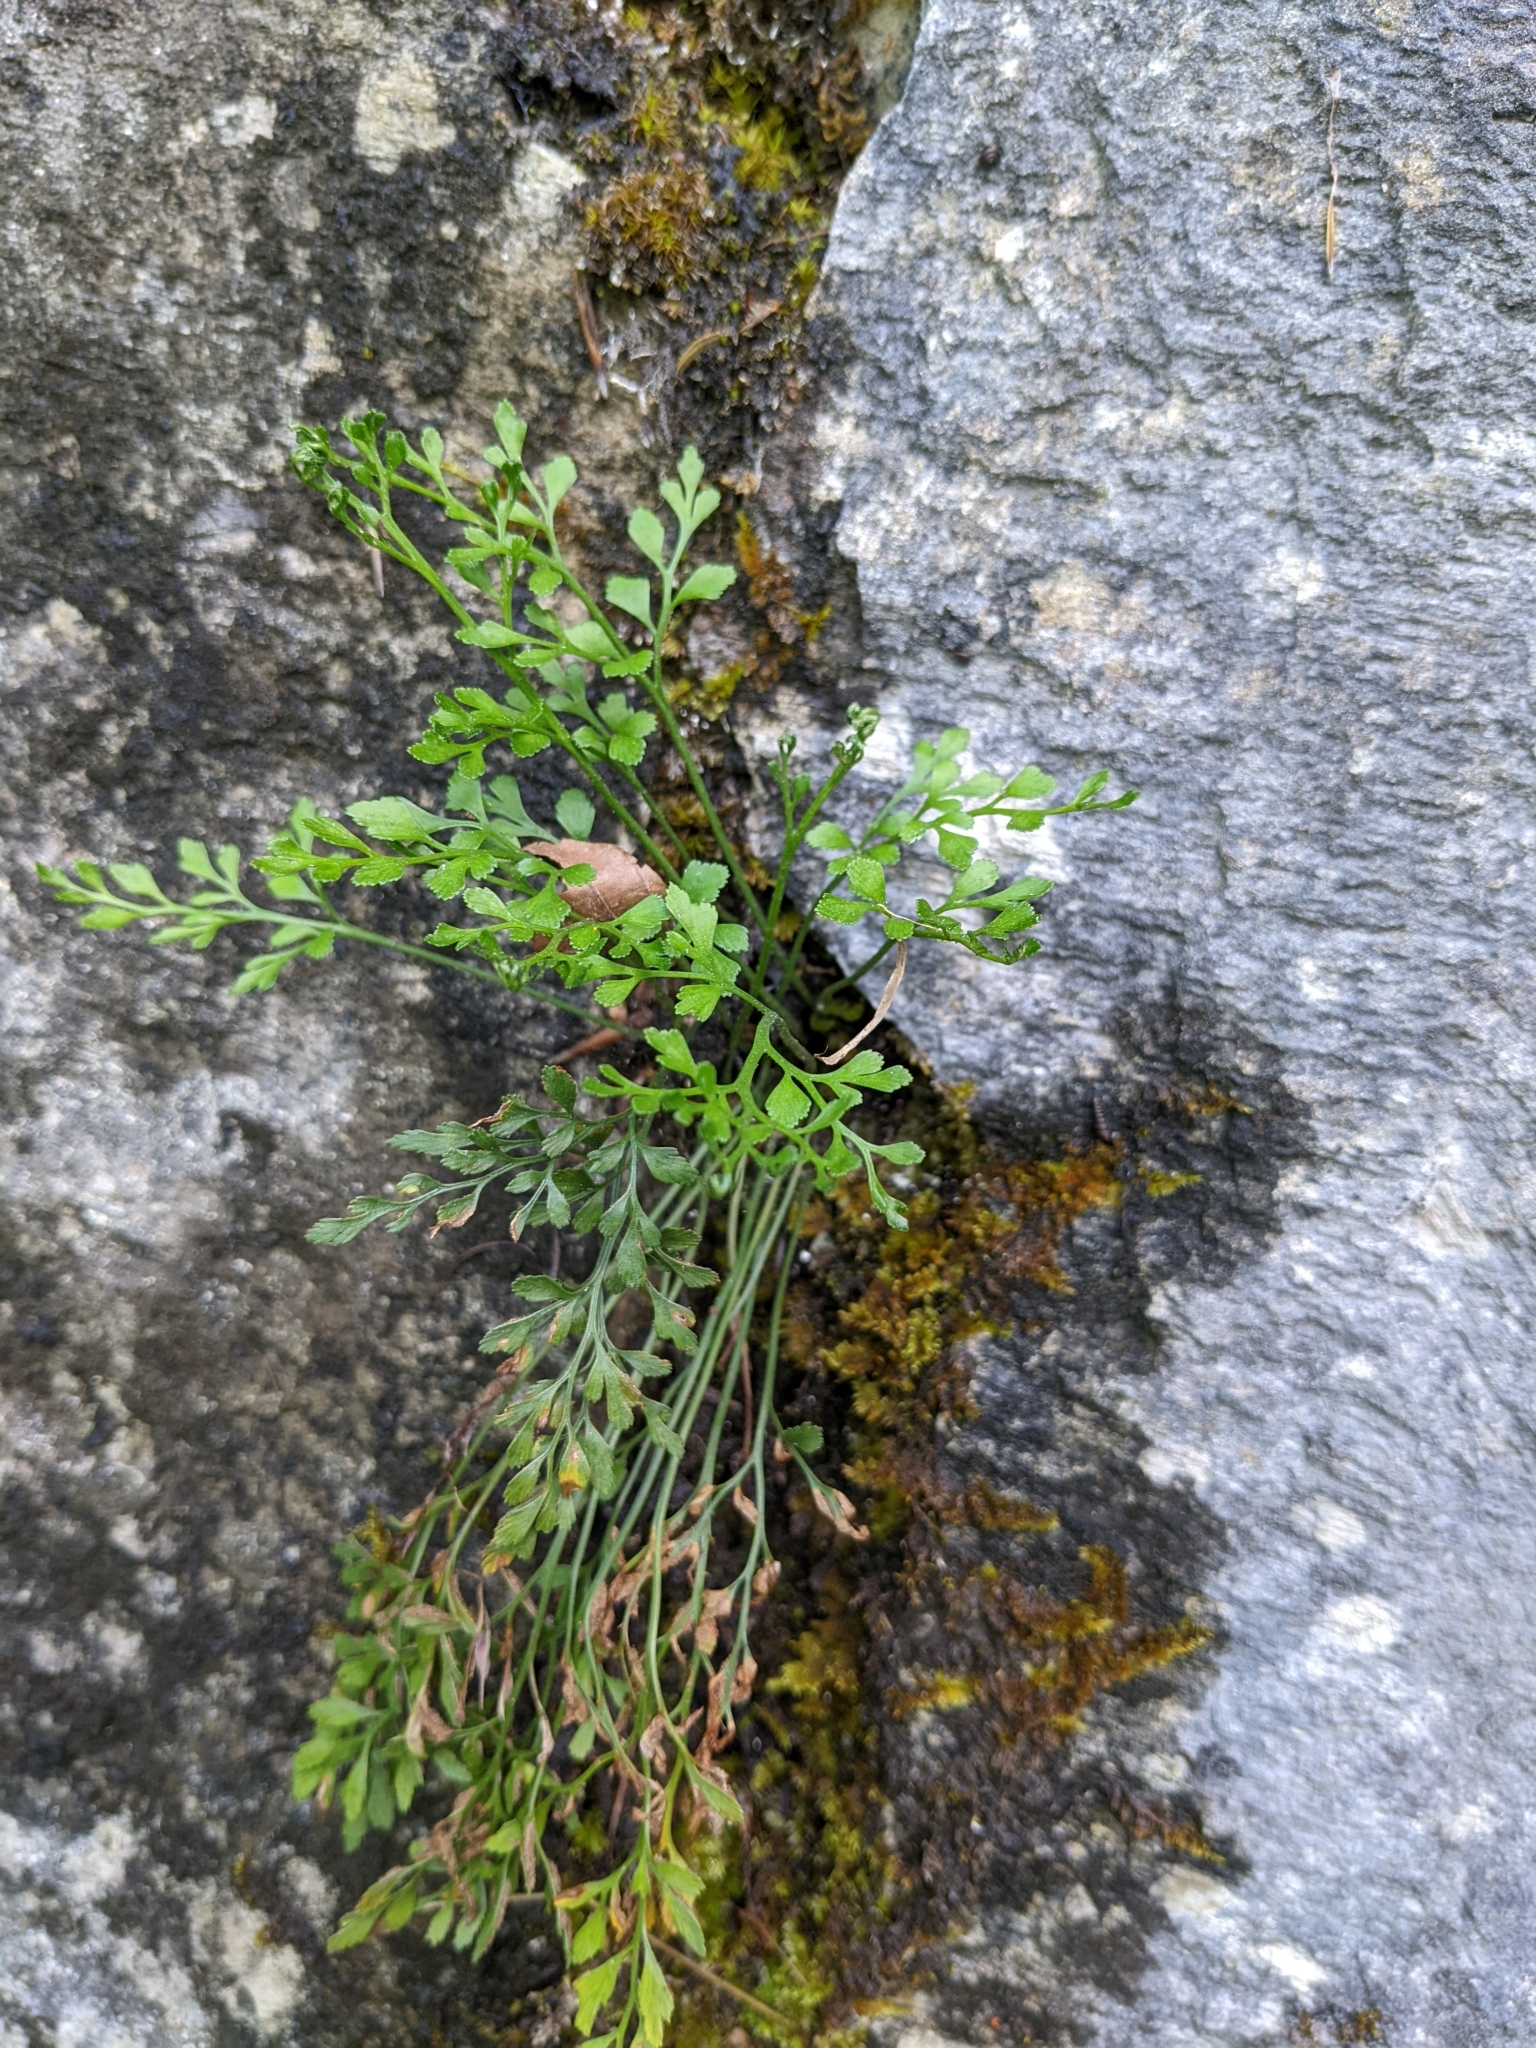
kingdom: Plantae
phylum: Tracheophyta
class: Polypodiopsida
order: Polypodiales
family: Aspleniaceae
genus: Asplenium
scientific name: Asplenium ruta-muraria
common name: Wall-rue
